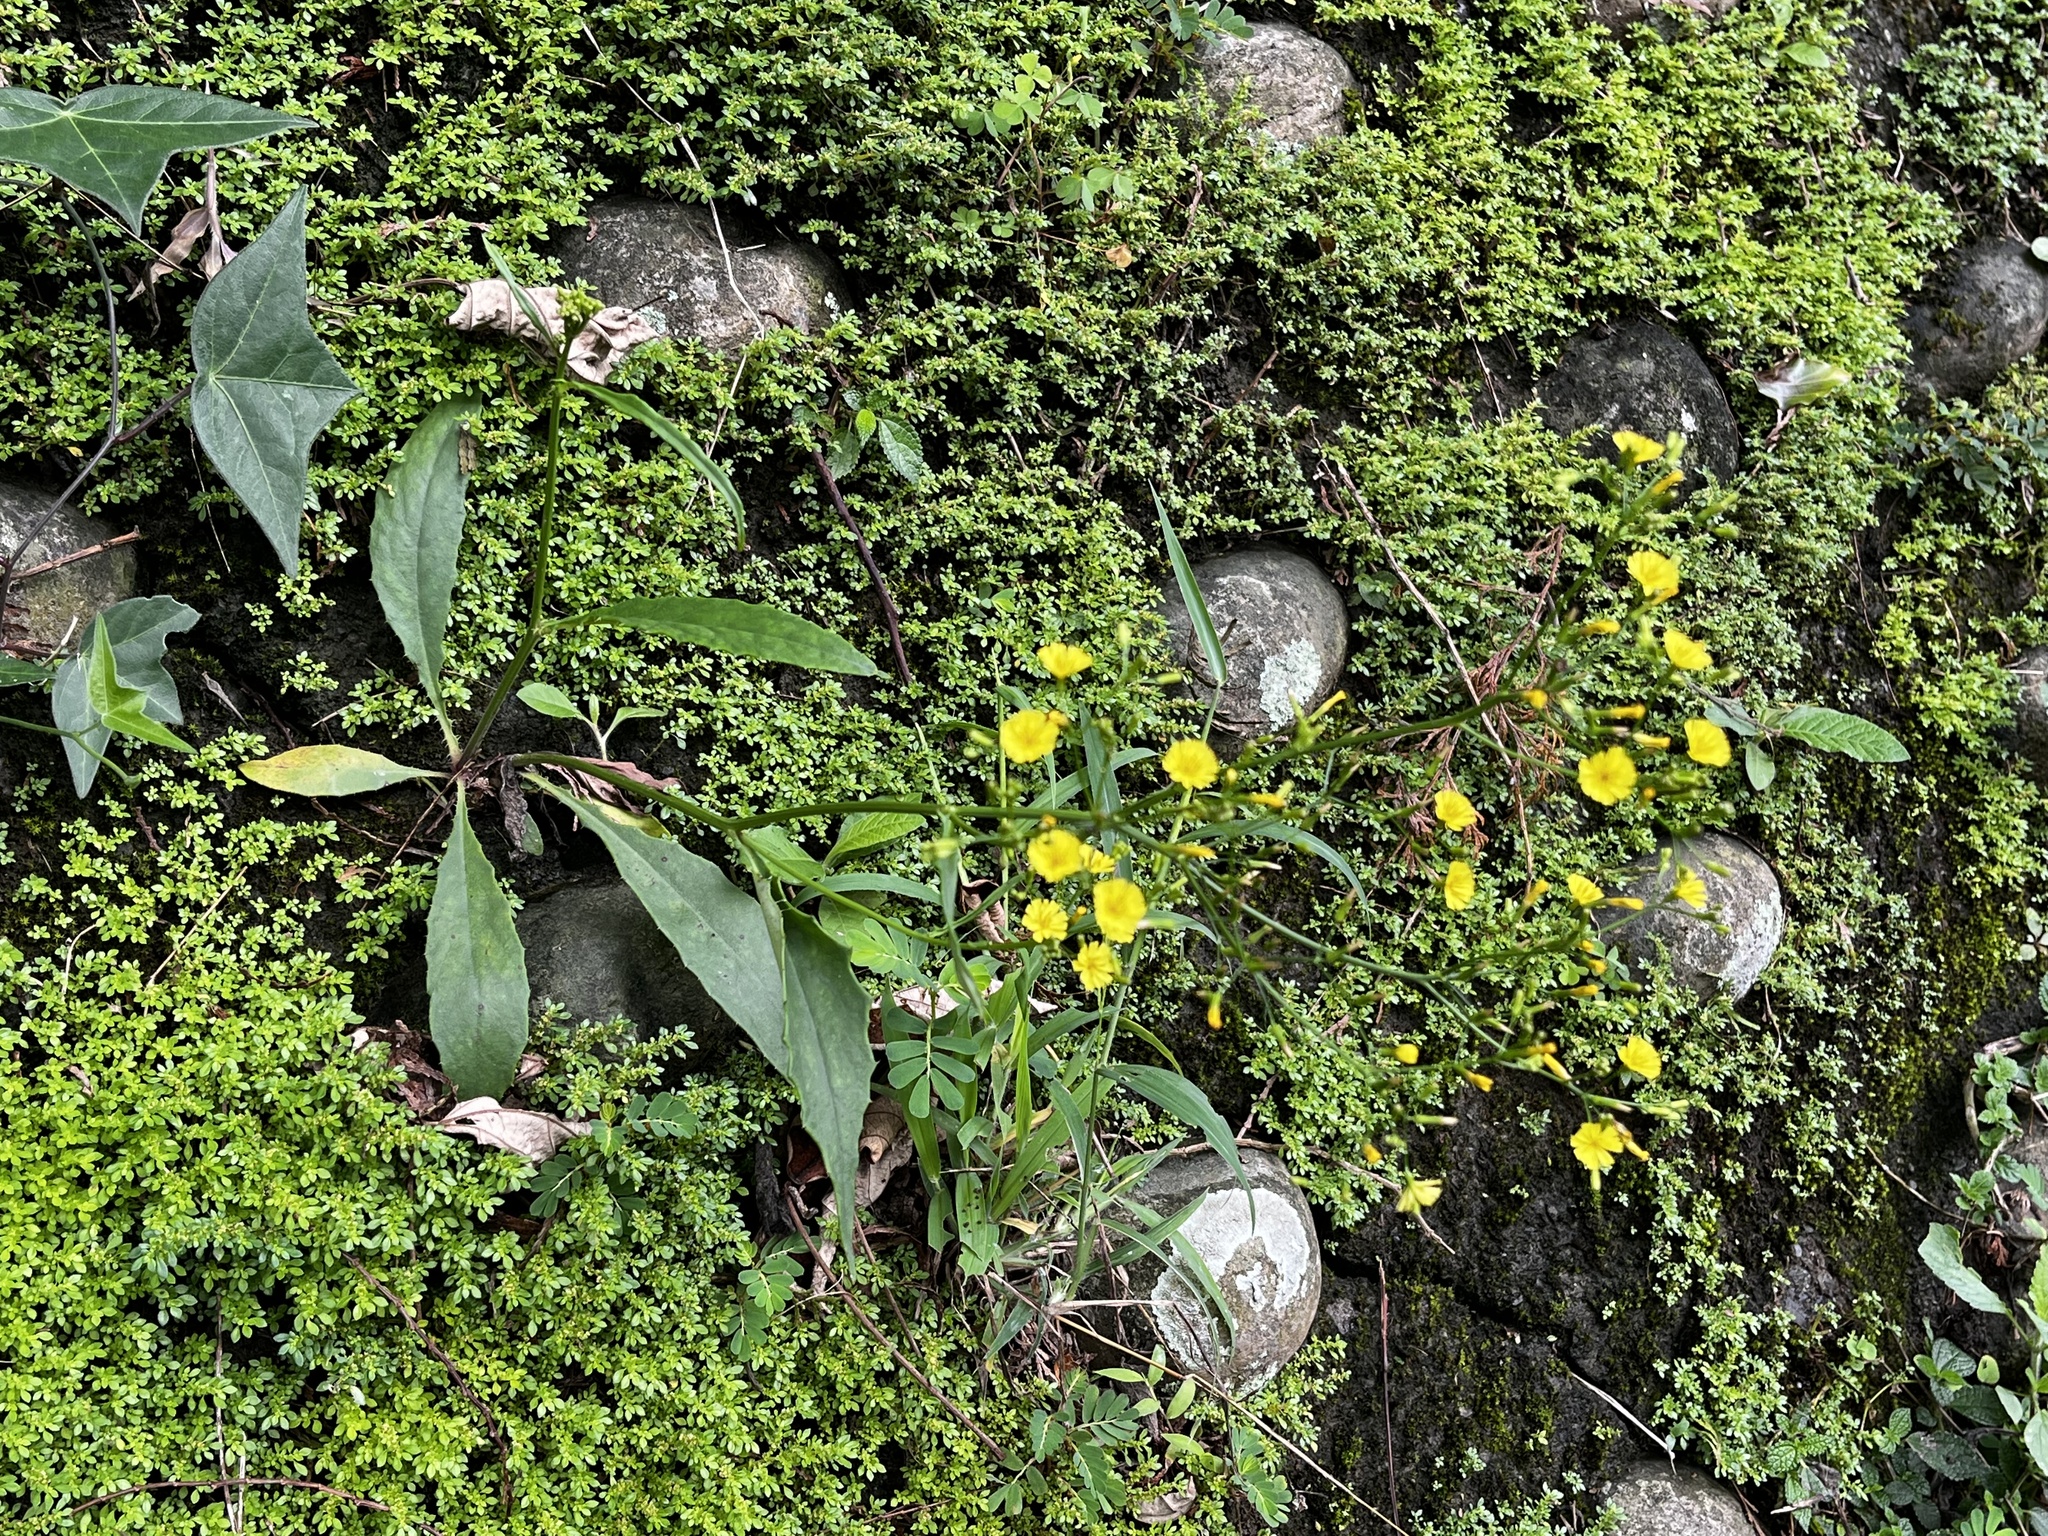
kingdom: Plantae
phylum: Tracheophyta
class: Magnoliopsida
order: Asterales
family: Asteraceae
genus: Ixeridium
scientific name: Ixeridium laevigatum
